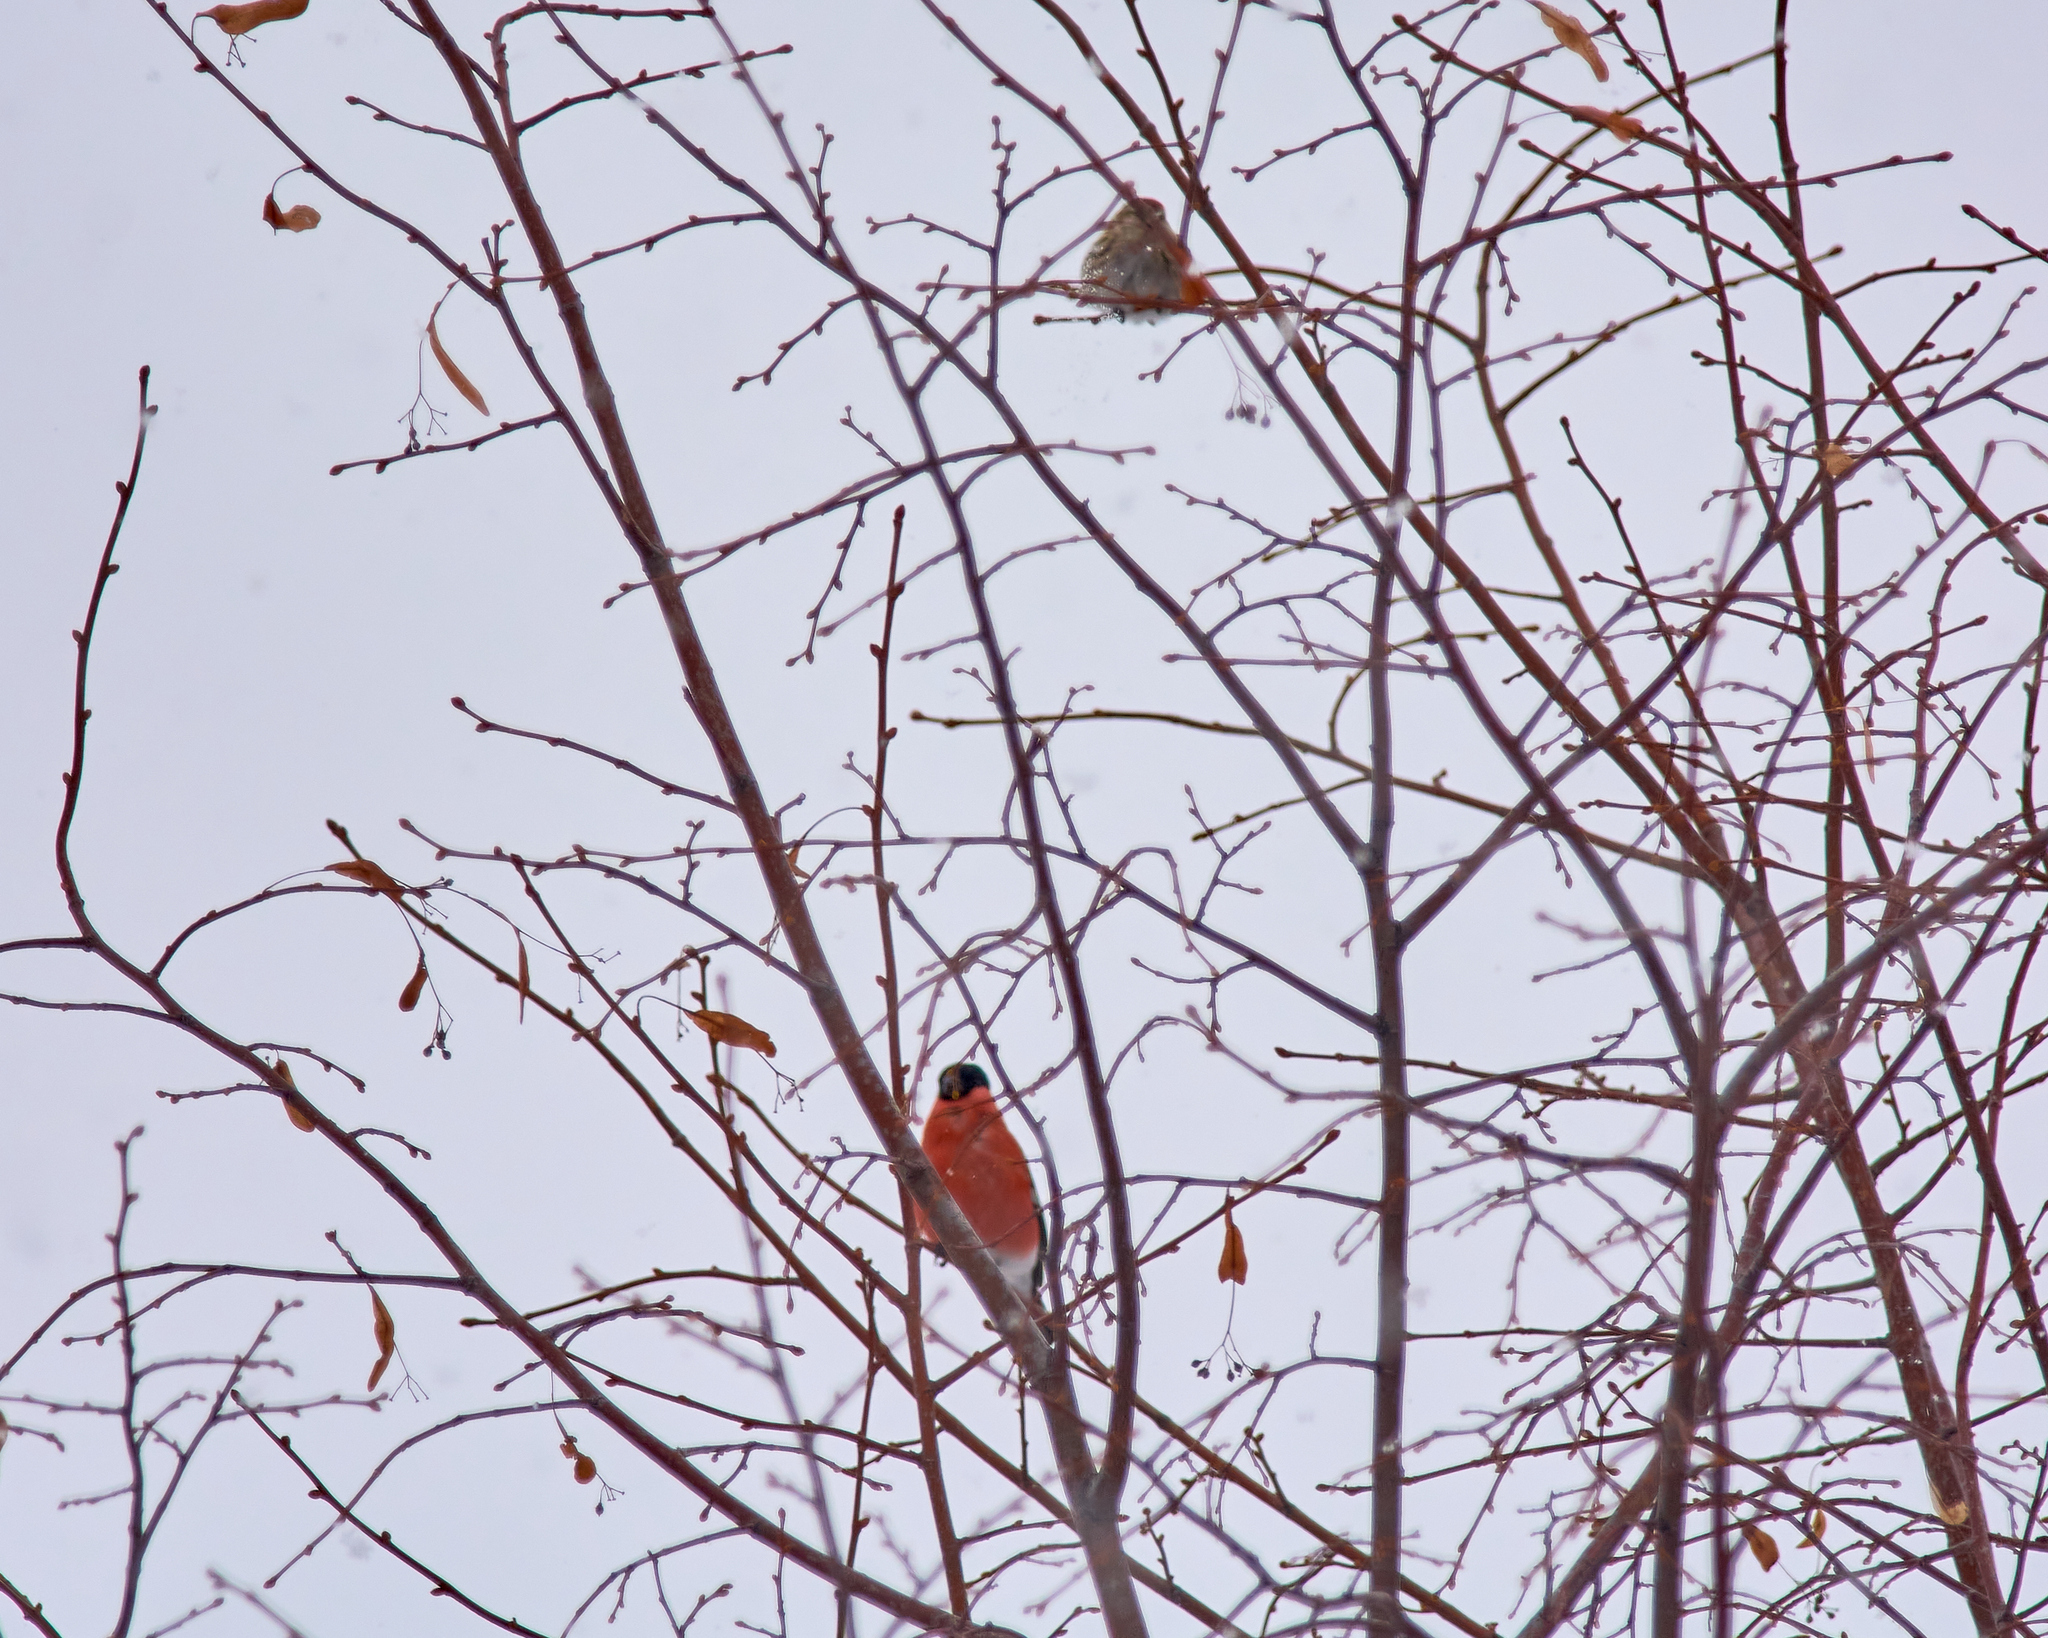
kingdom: Animalia
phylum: Chordata
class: Aves
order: Passeriformes
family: Fringillidae
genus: Acanthis
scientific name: Acanthis flammea
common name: Common redpoll
